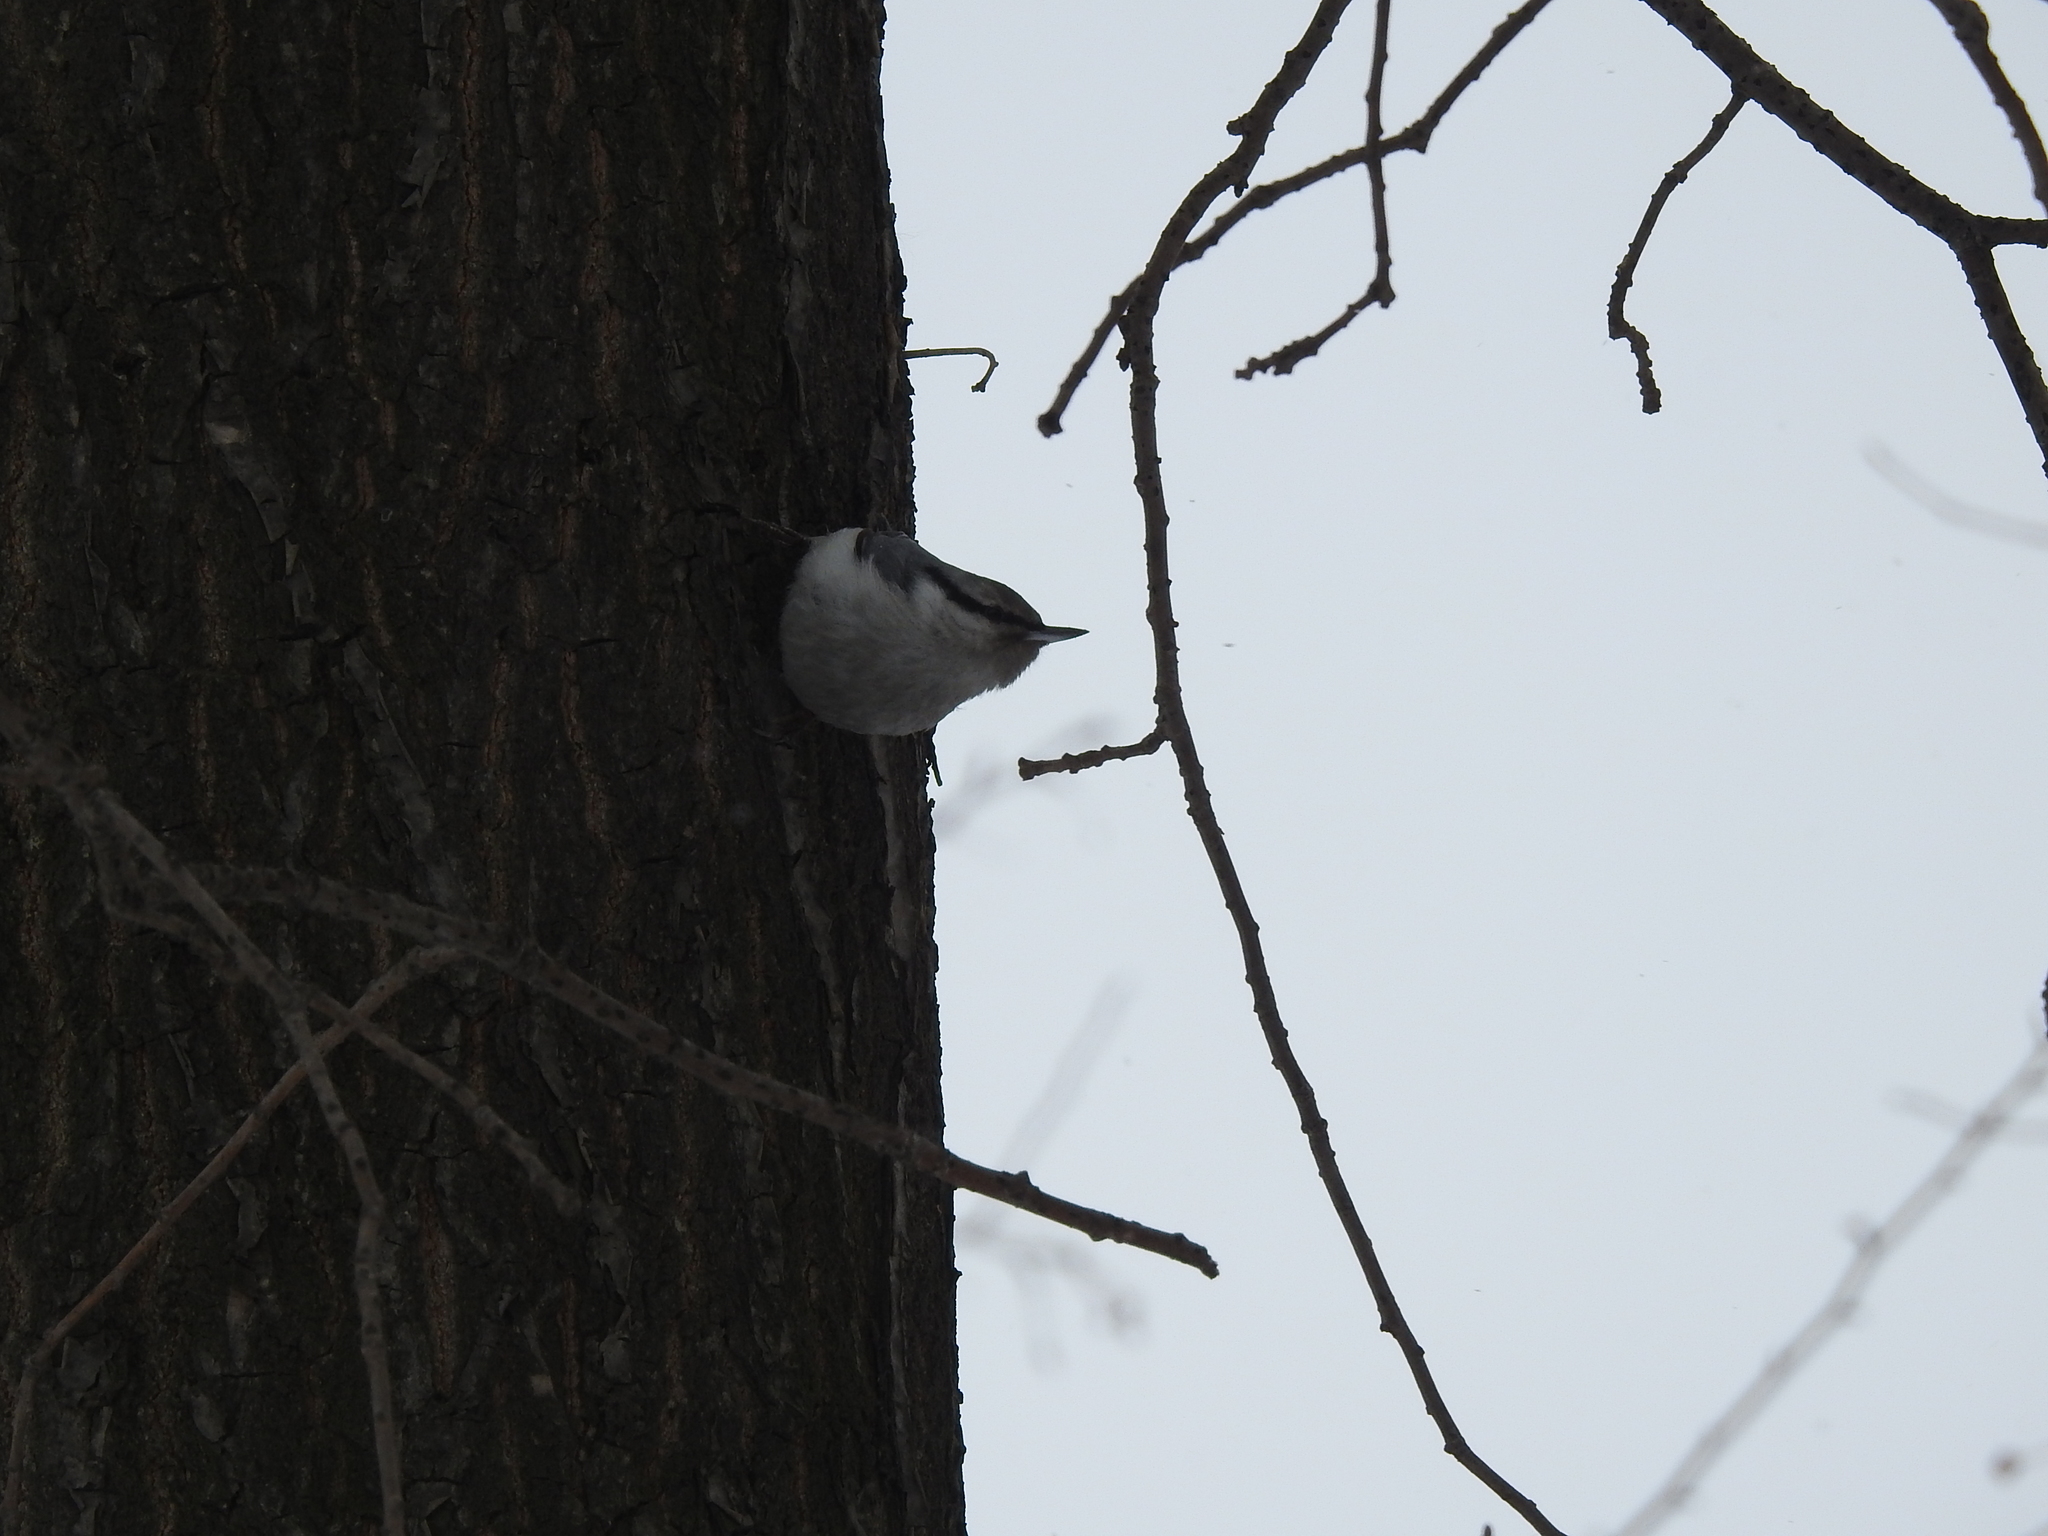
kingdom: Animalia
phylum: Chordata
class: Aves
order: Passeriformes
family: Sittidae
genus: Sitta
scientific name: Sitta europaea
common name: Eurasian nuthatch
